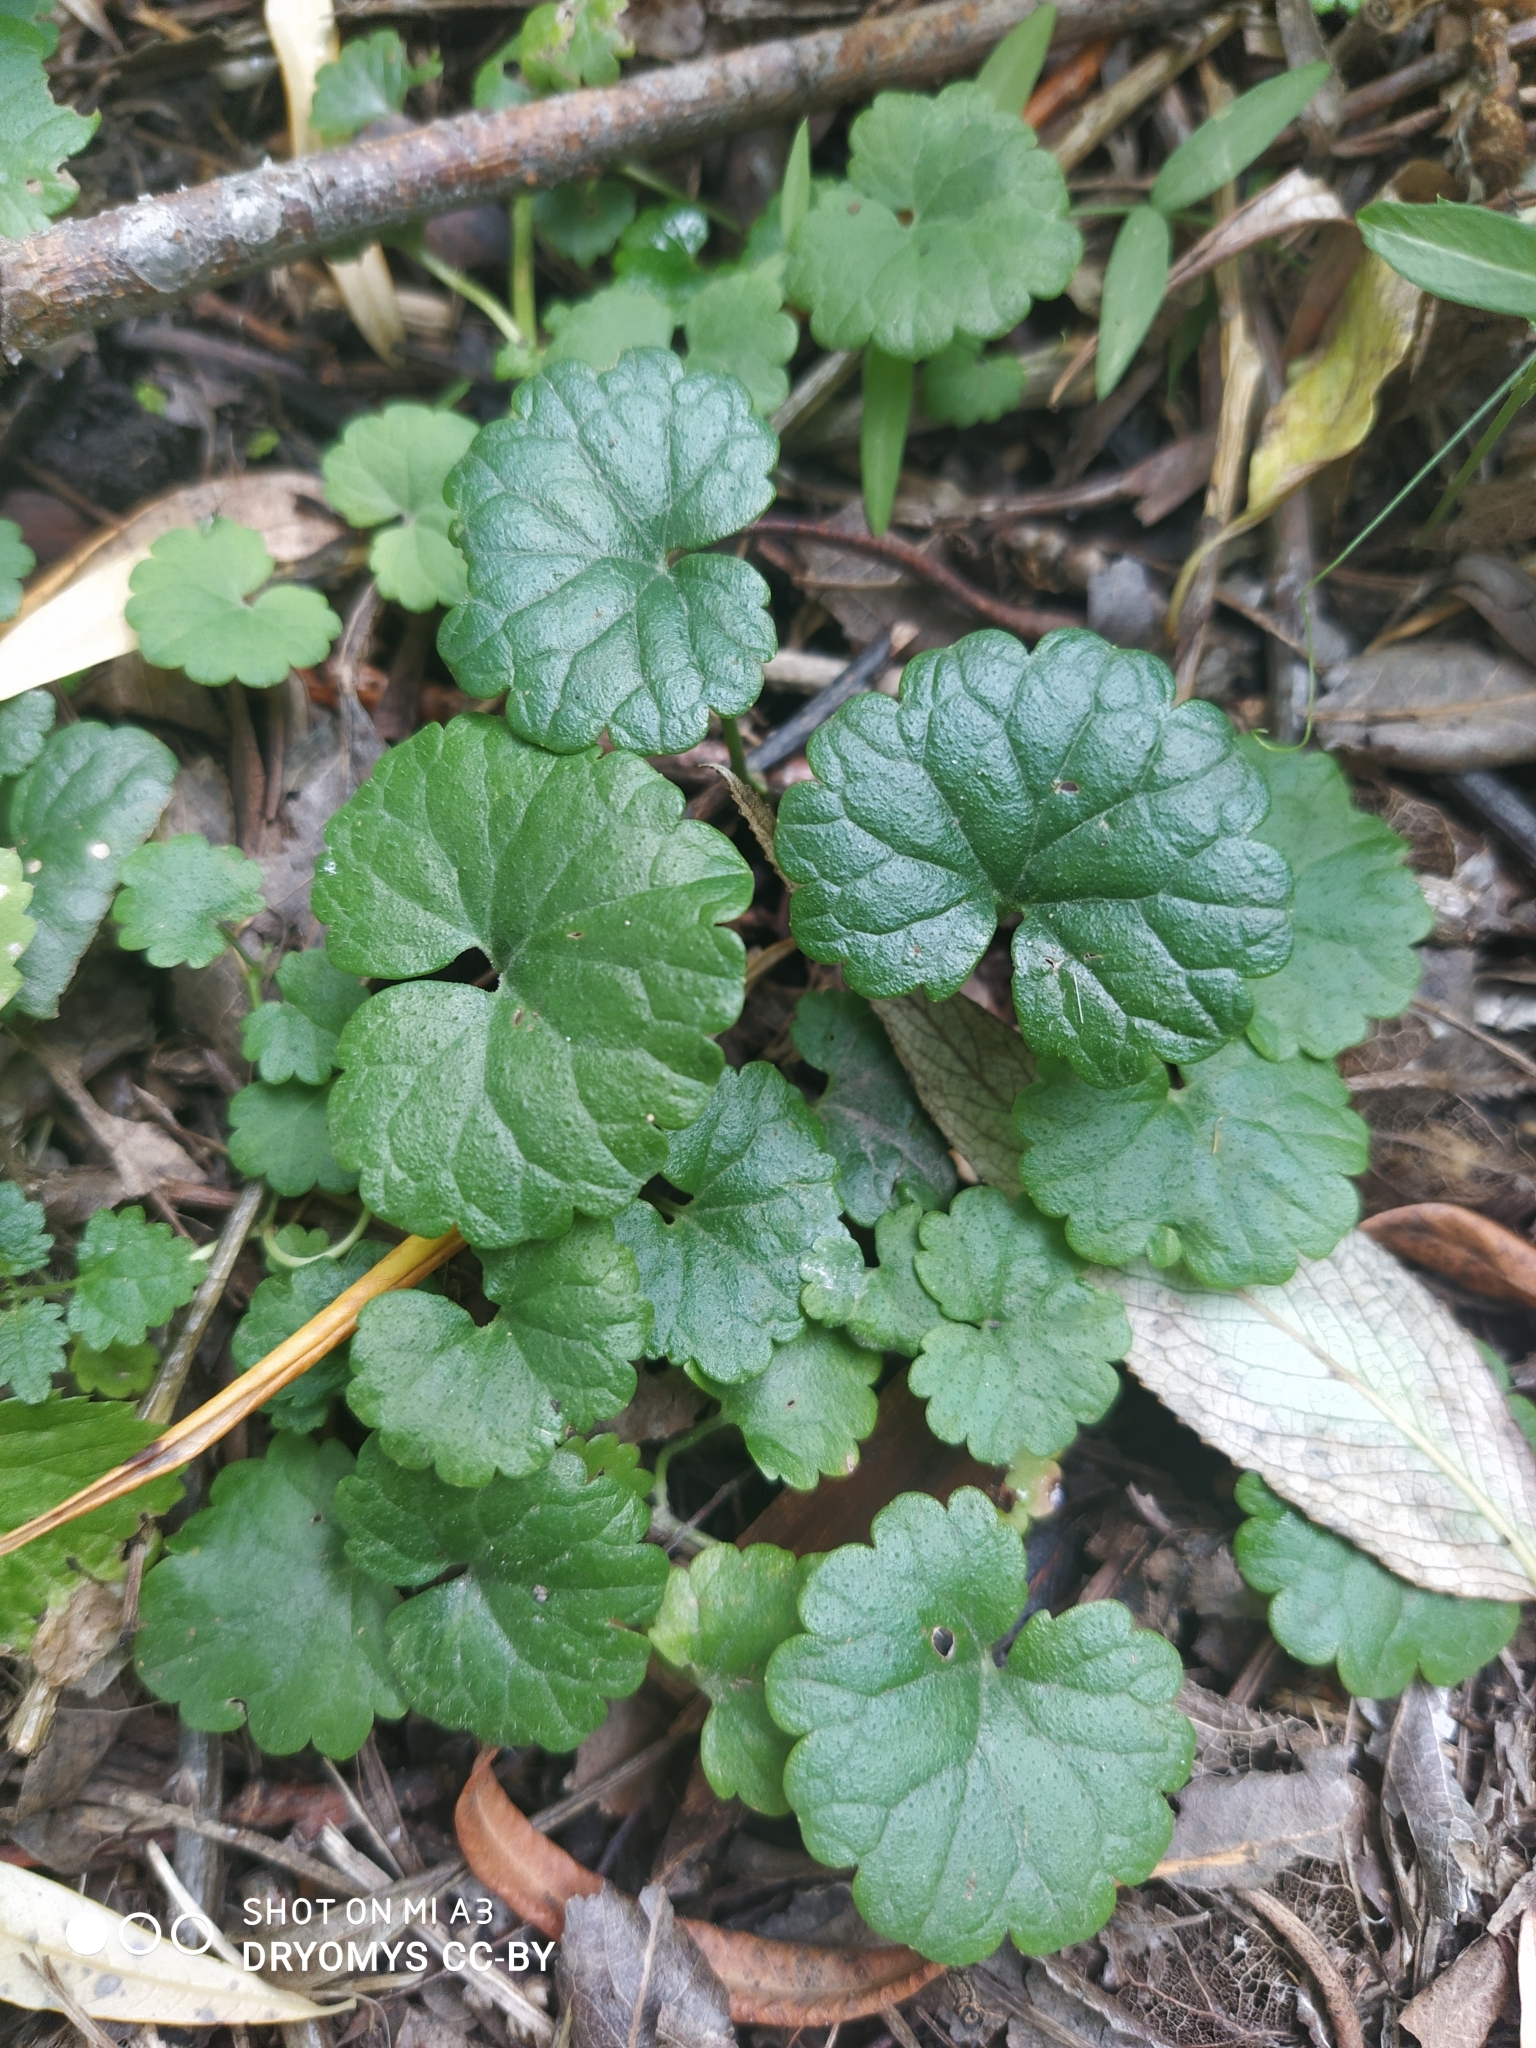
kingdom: Plantae
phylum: Tracheophyta
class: Magnoliopsida
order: Lamiales
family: Lamiaceae
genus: Glechoma
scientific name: Glechoma hederacea
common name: Ground ivy
